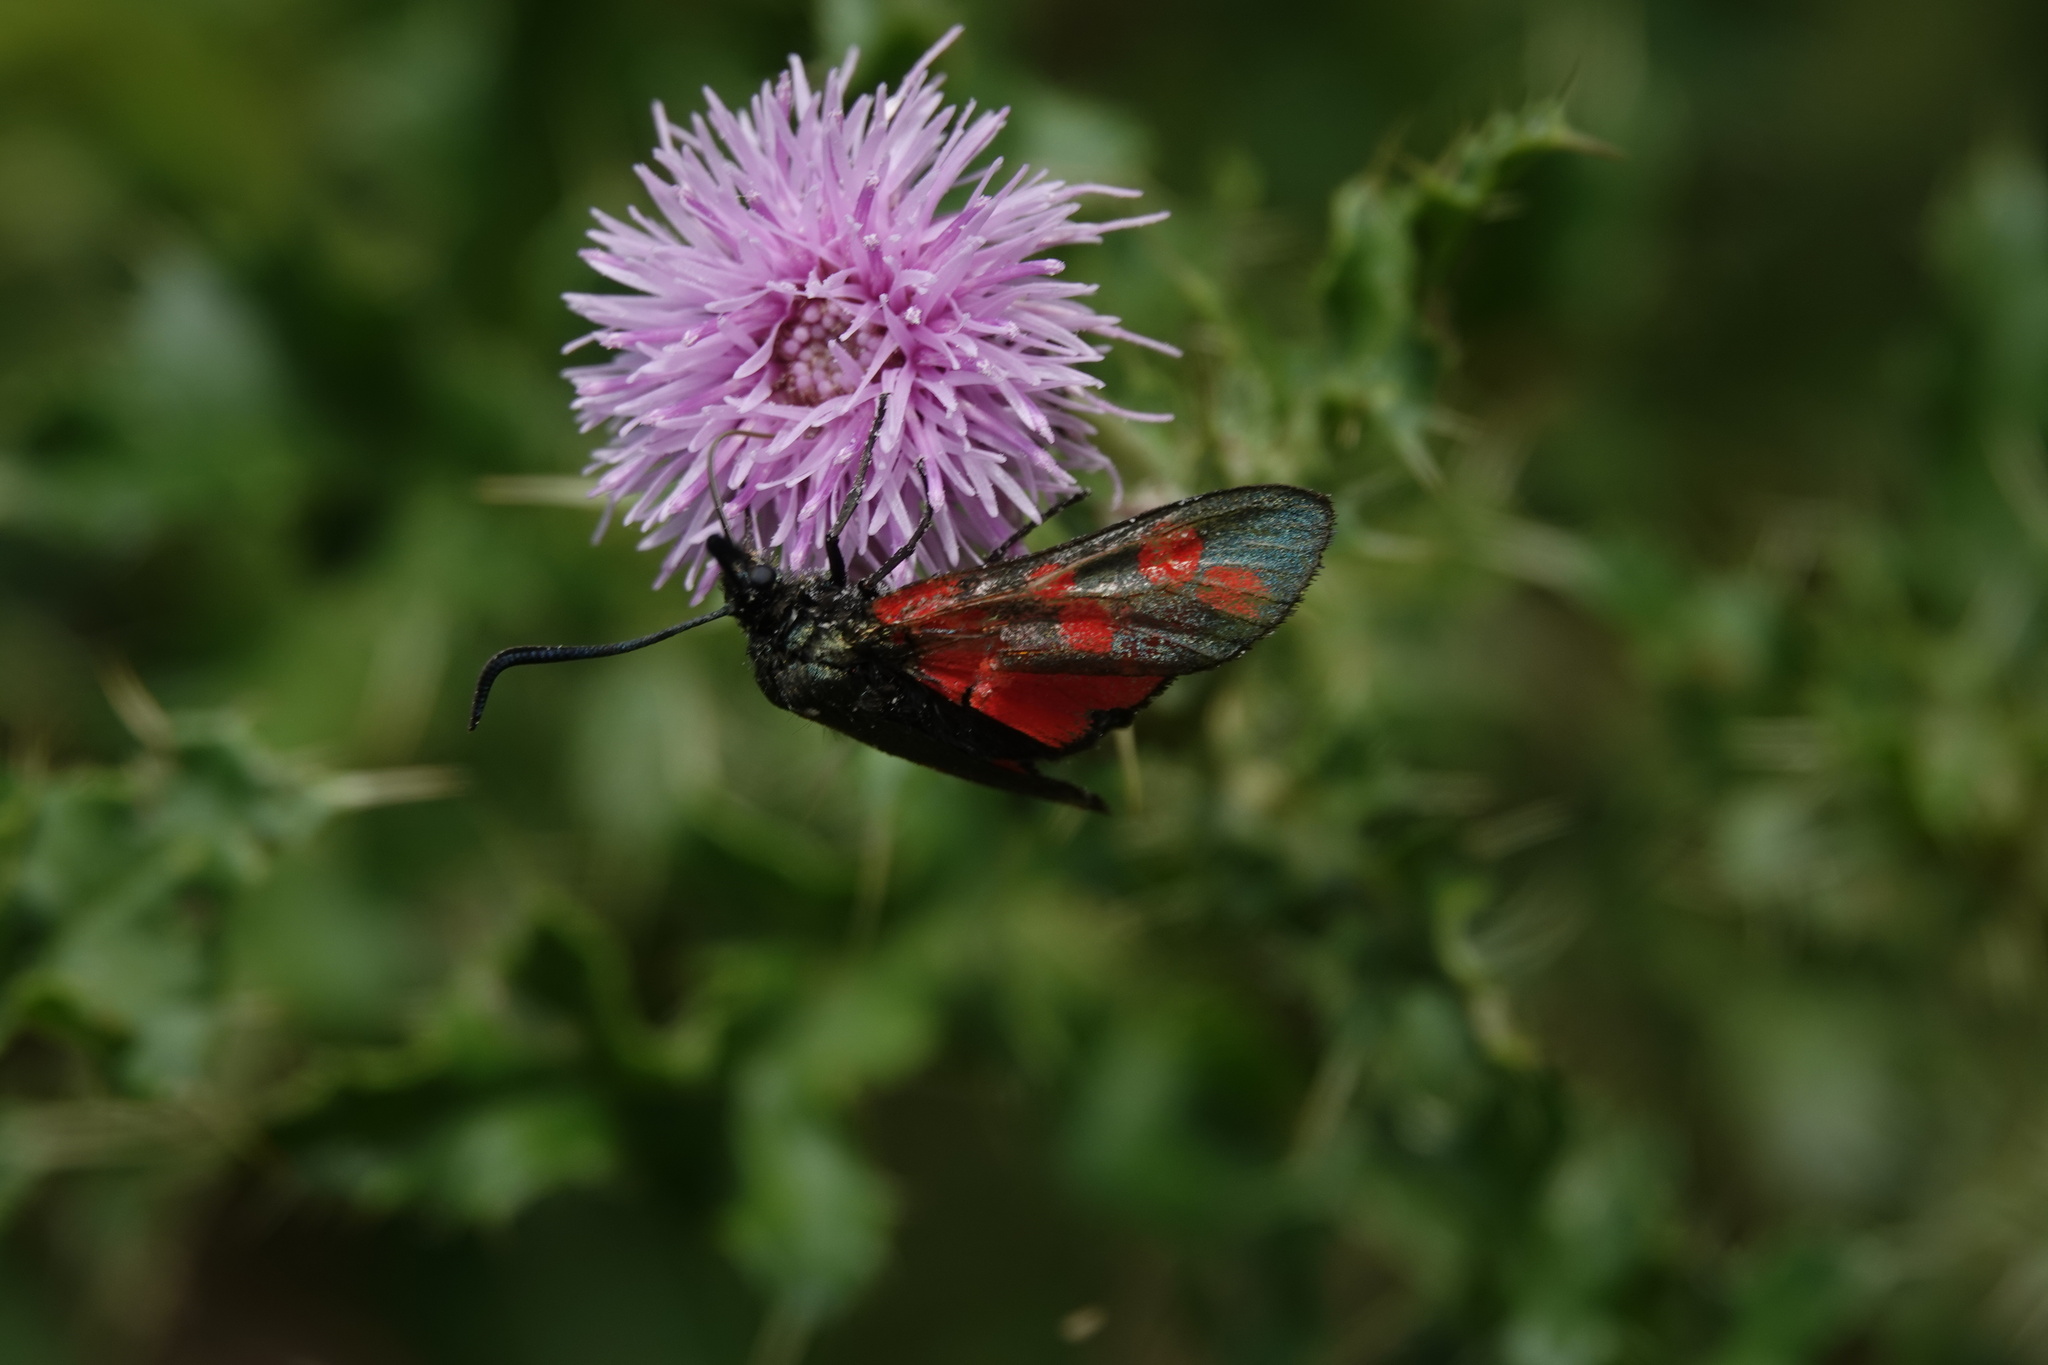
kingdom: Animalia
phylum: Arthropoda
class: Insecta
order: Lepidoptera
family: Zygaenidae
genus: Zygaena
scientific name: Zygaena filipendulae
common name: Six-spot burnet
